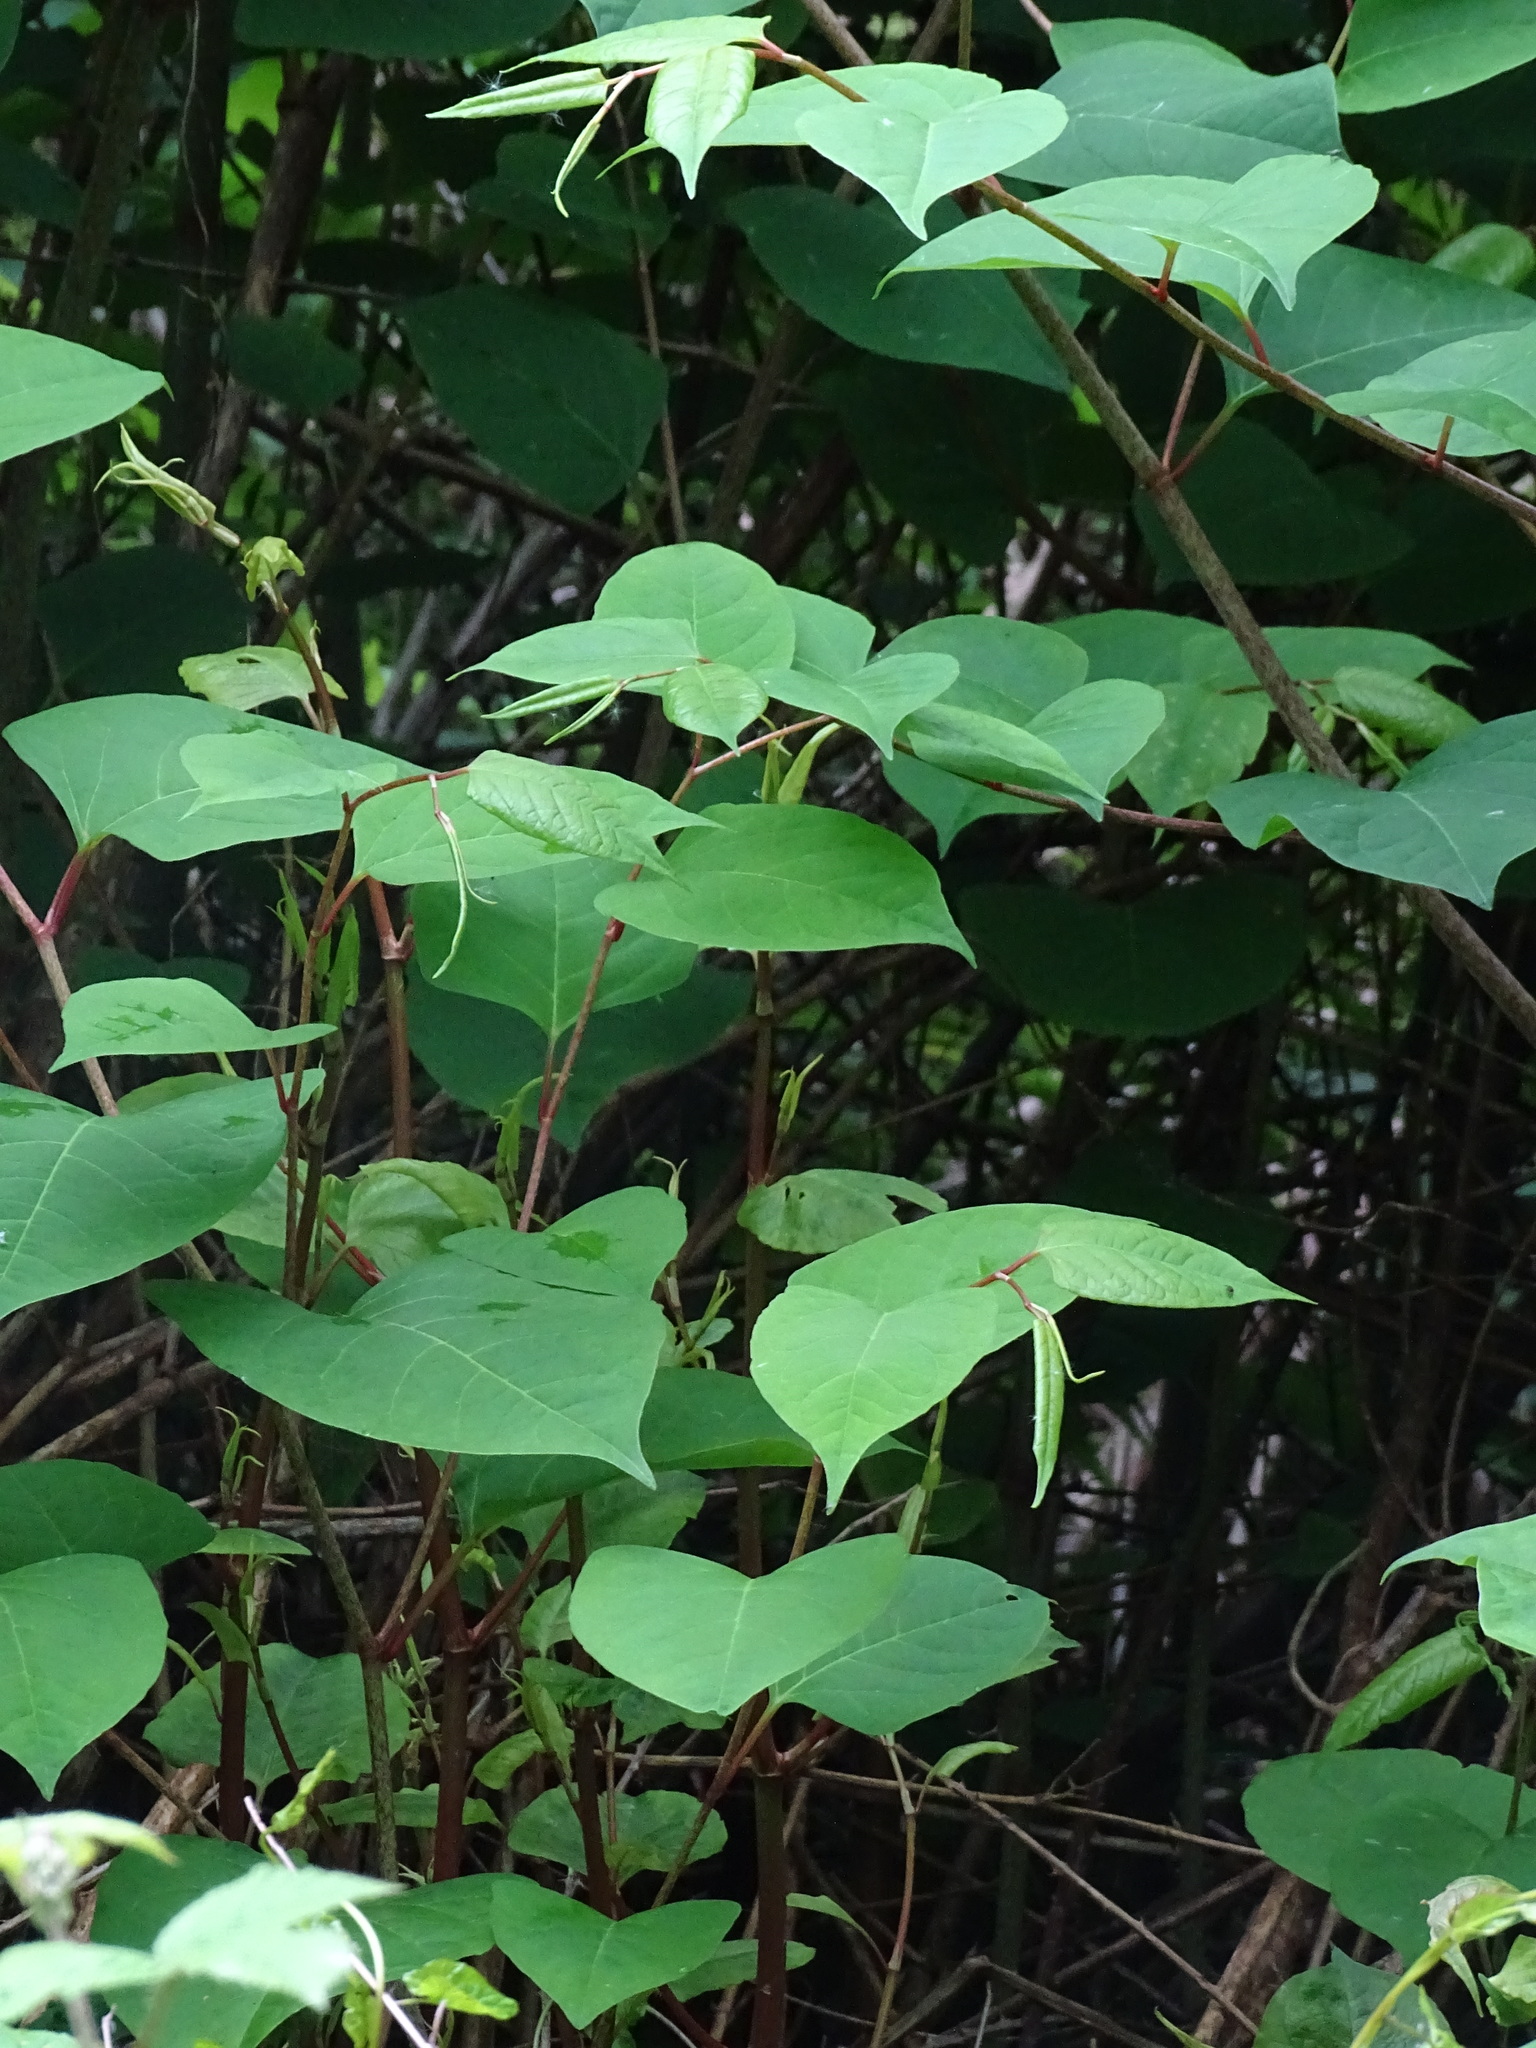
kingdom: Plantae
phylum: Tracheophyta
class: Magnoliopsida
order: Caryophyllales
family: Polygonaceae
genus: Reynoutria
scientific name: Reynoutria japonica
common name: Japanese knotweed
